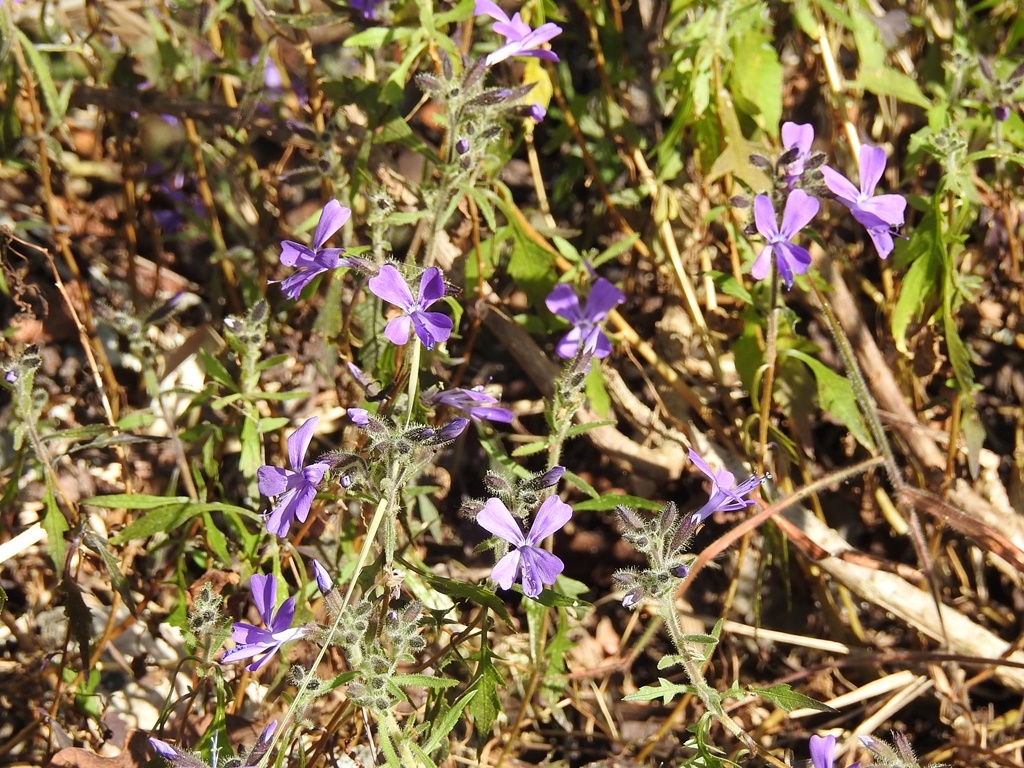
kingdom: Plantae
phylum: Tracheophyta
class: Magnoliopsida
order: Ericales
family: Polemoniaceae
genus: Bonplandia
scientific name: Bonplandia geminiflora
